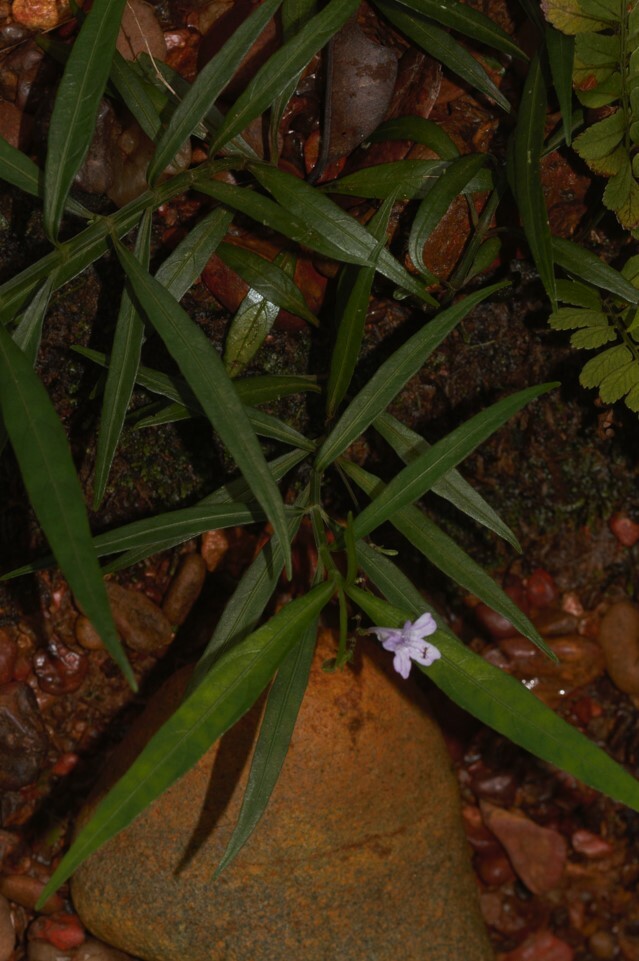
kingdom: Plantae
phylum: Tracheophyta
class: Magnoliopsida
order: Lamiales
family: Acanthaceae
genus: Ruellia
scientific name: Ruellia longifolia
